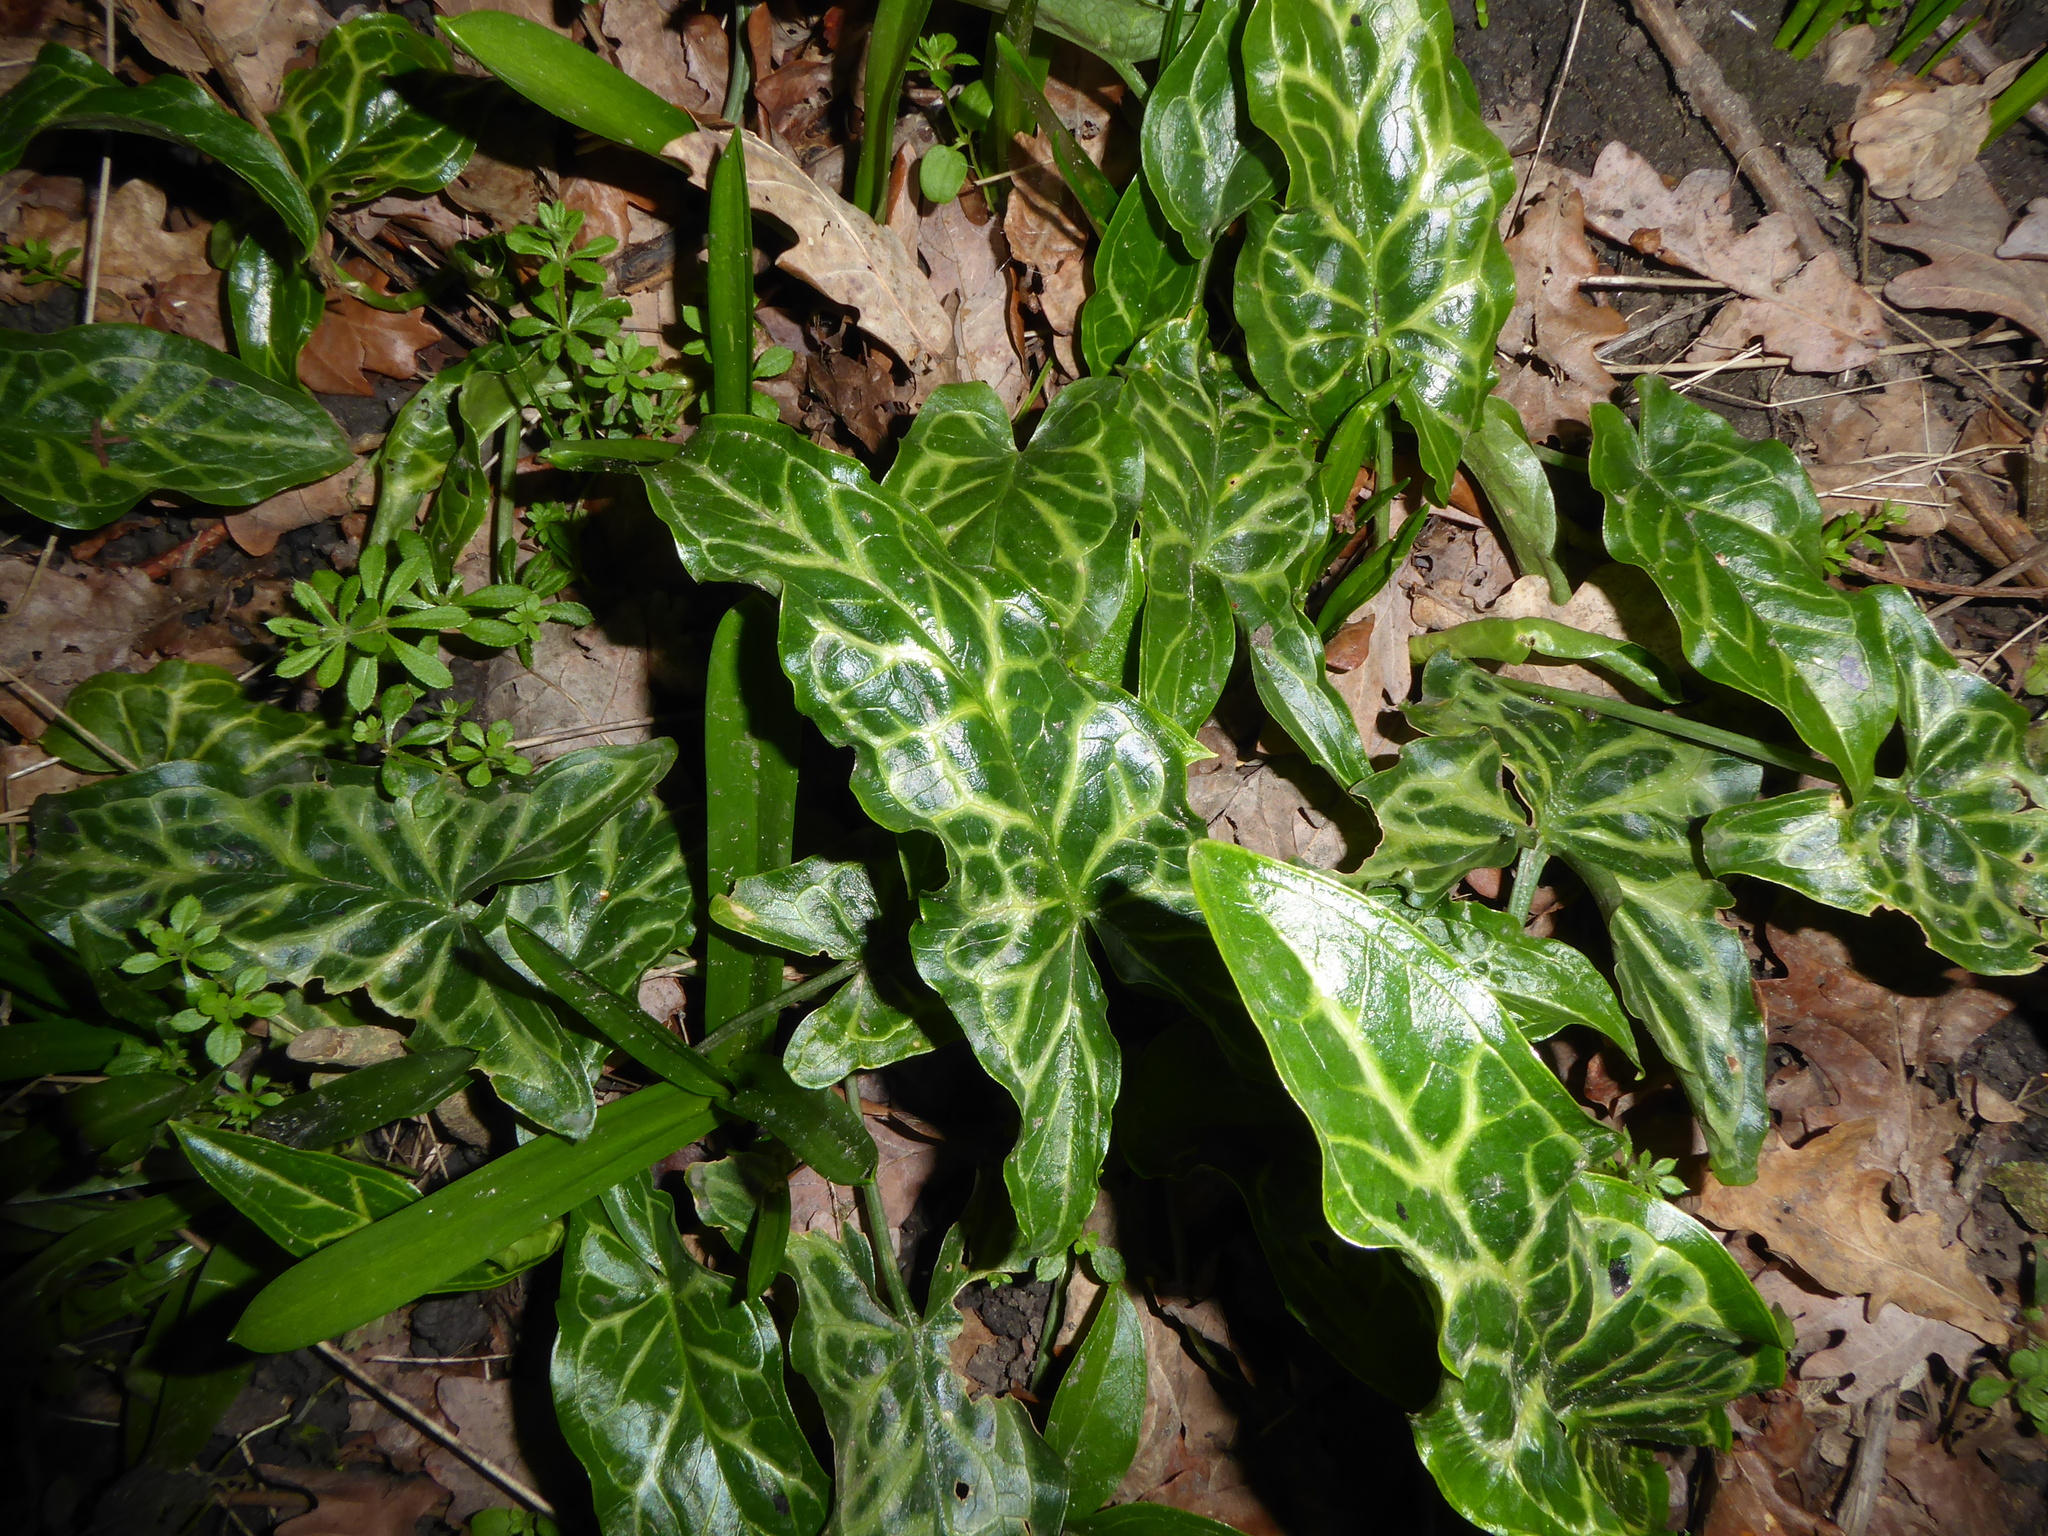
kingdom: Plantae
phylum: Tracheophyta
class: Liliopsida
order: Alismatales
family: Araceae
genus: Arum
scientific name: Arum italicum
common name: Italian lords-and-ladies
